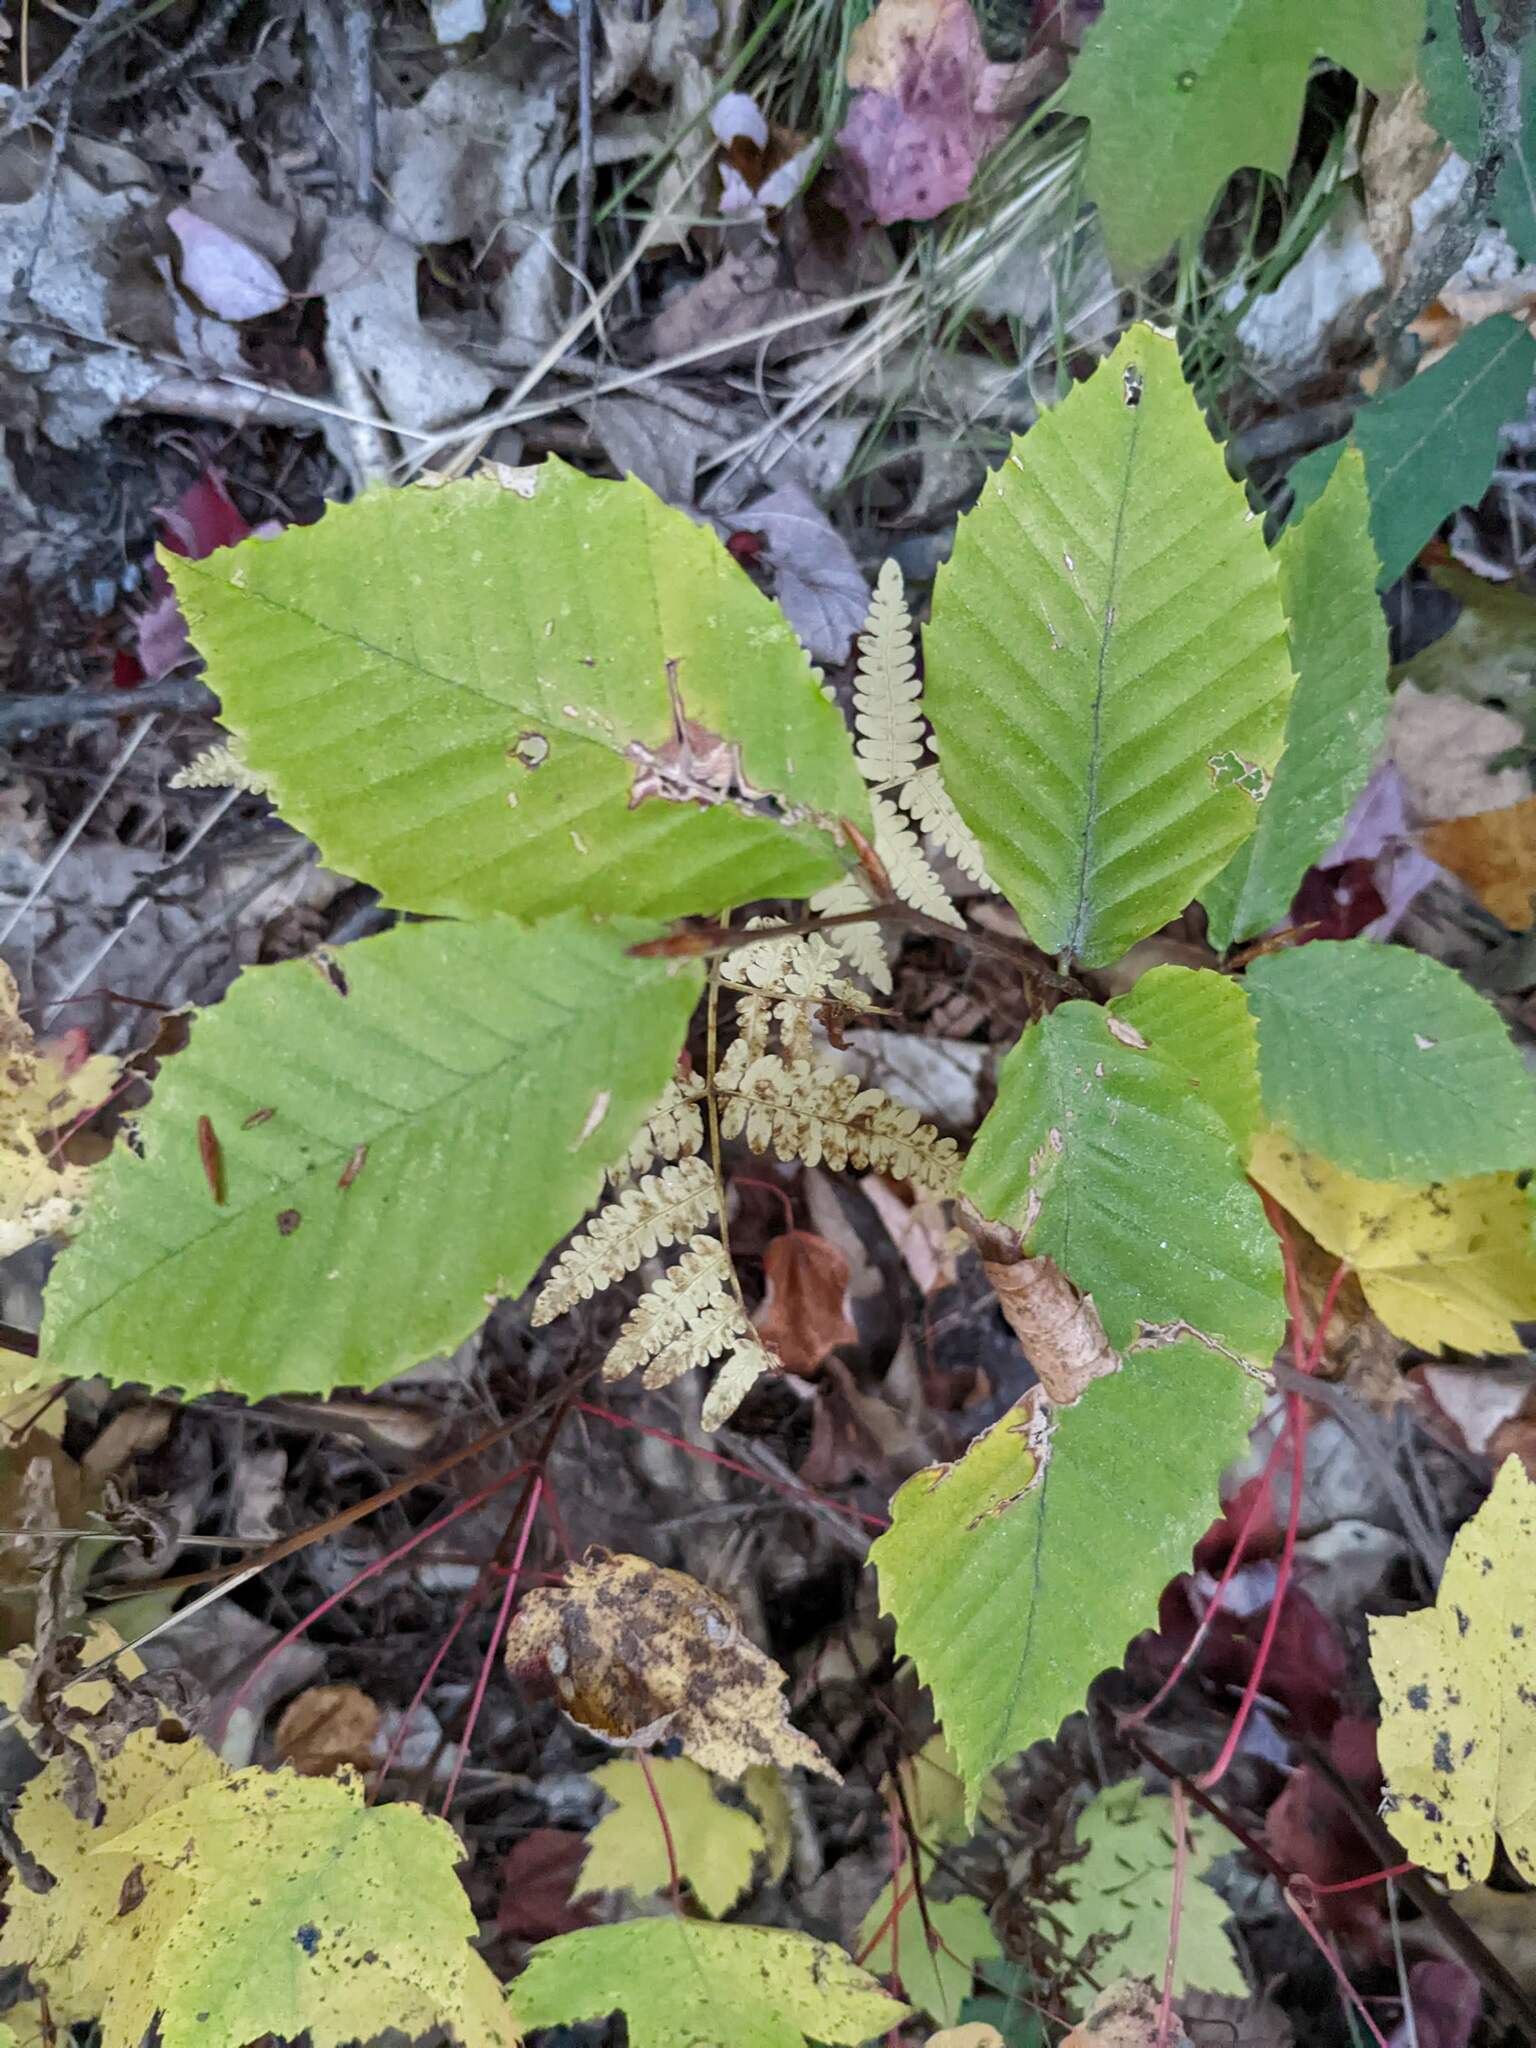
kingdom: Plantae
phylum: Tracheophyta
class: Magnoliopsida
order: Fagales
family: Fagaceae
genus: Fagus
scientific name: Fagus grandifolia
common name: American beech
